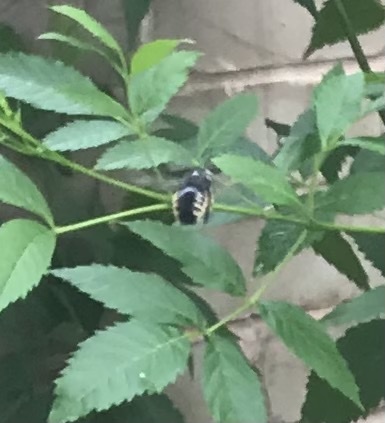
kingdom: Animalia
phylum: Arthropoda
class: Insecta
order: Hymenoptera
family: Apidae
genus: Xylocopa
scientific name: Xylocopa tabaniformis
